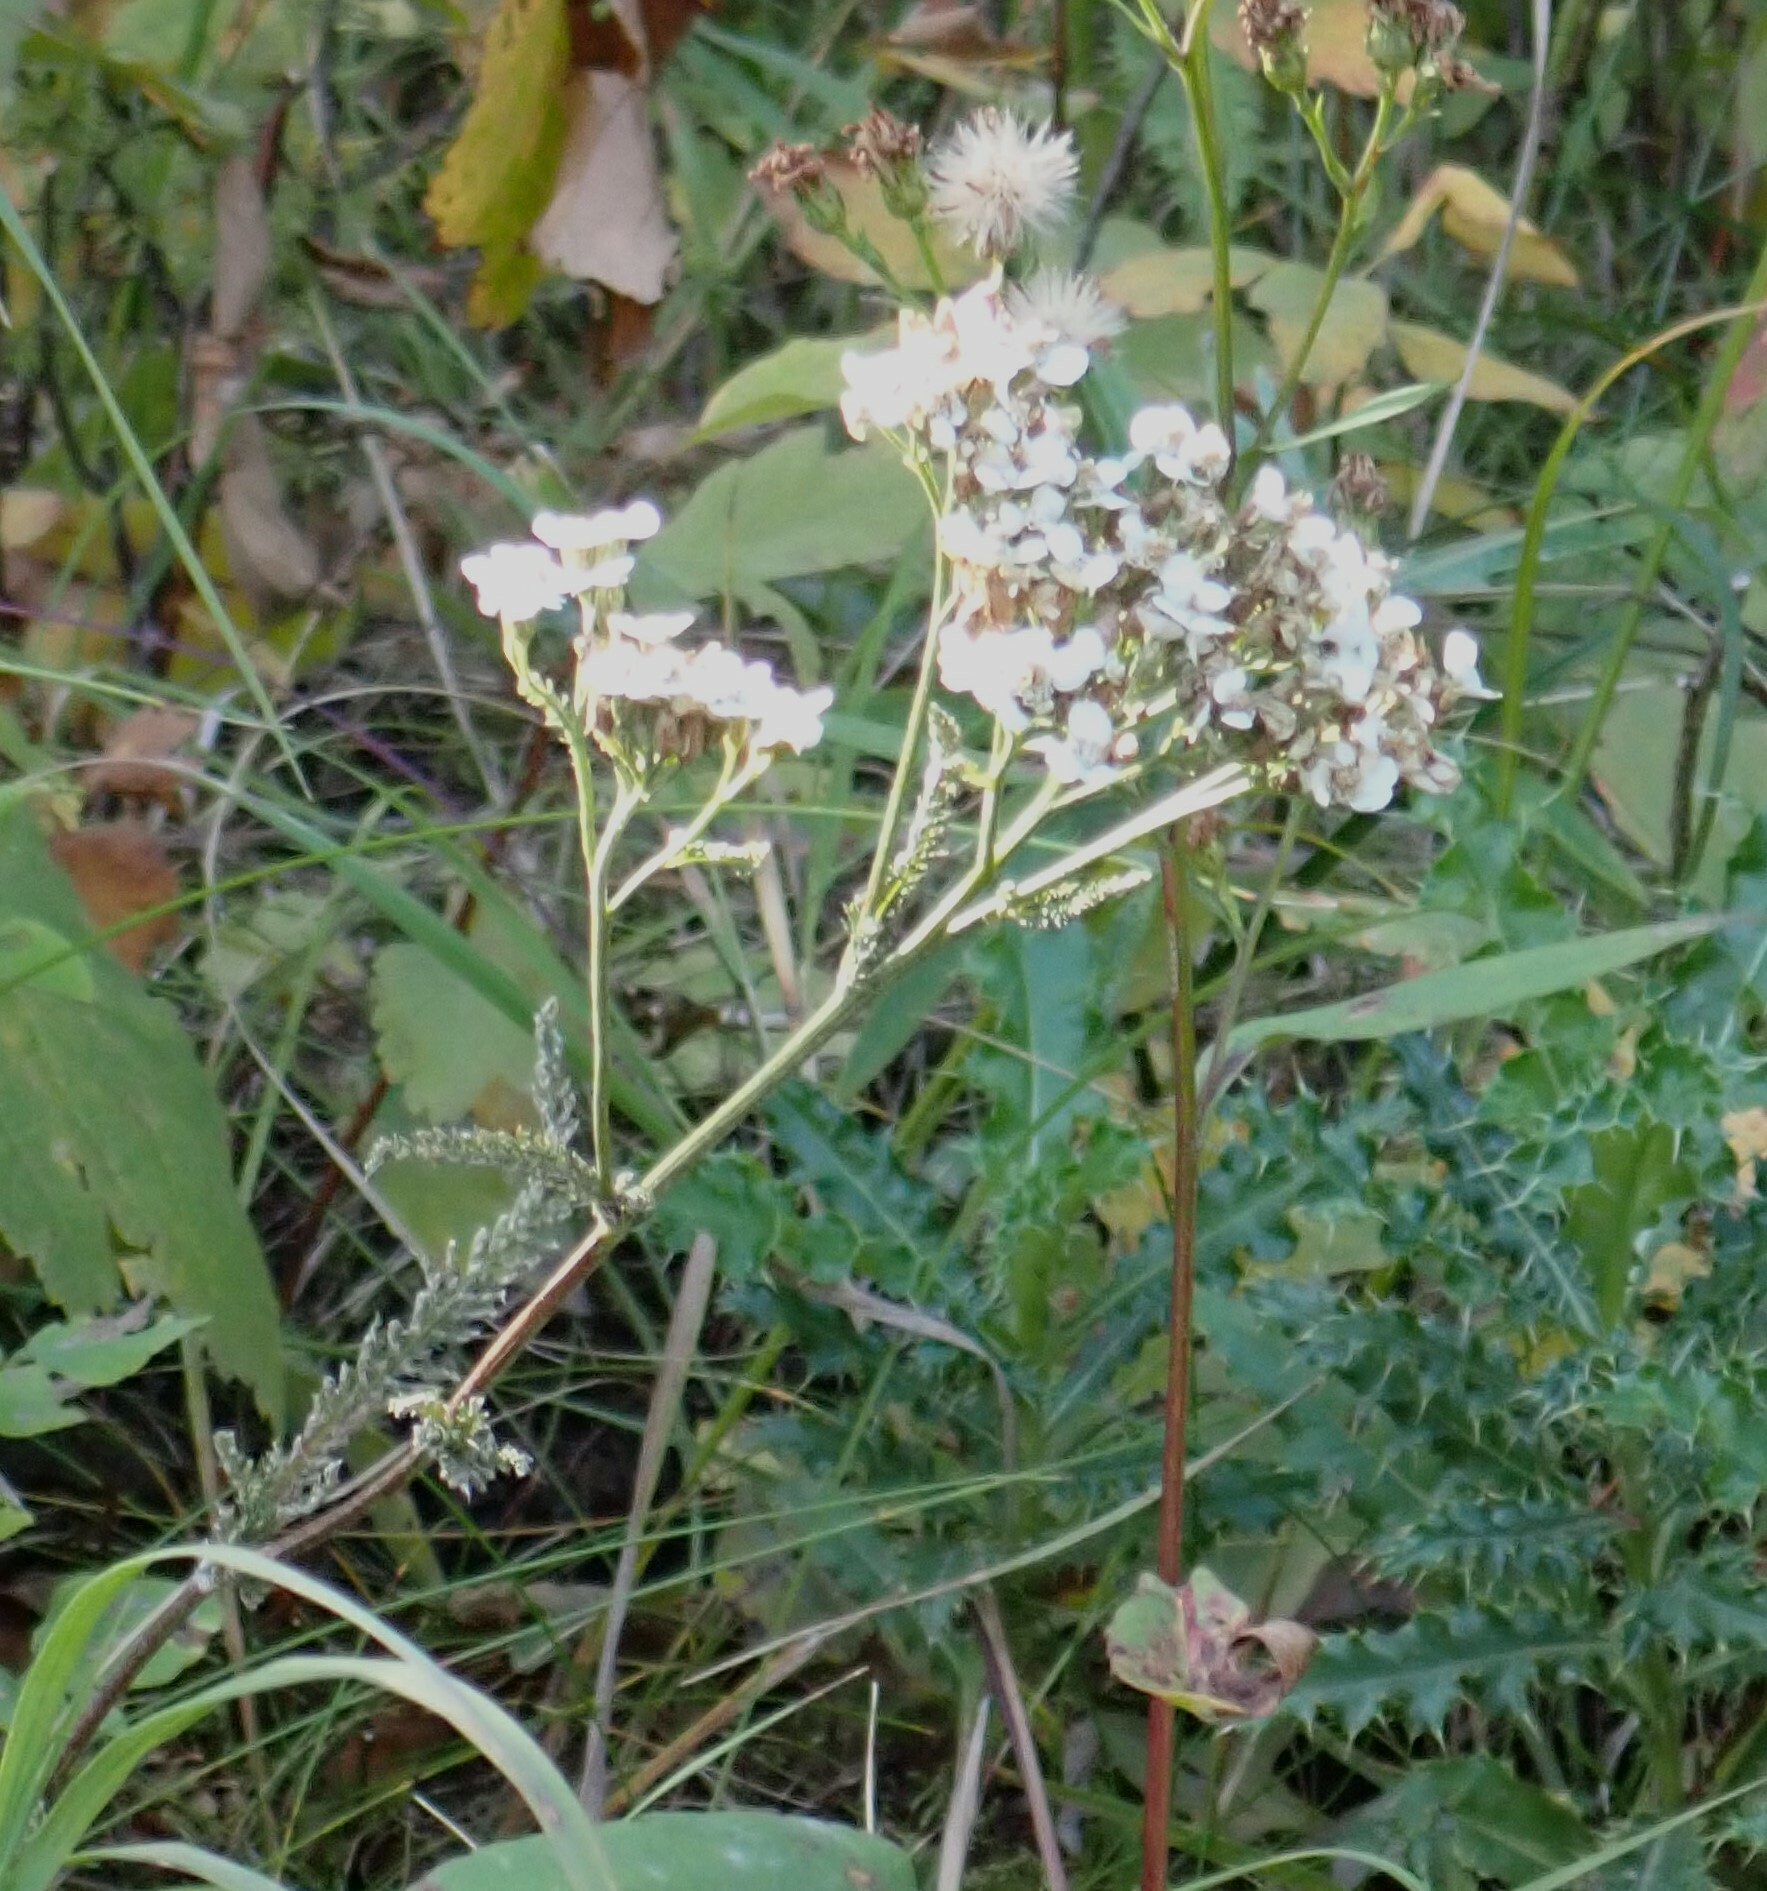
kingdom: Plantae
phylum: Tracheophyta
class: Magnoliopsida
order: Asterales
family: Asteraceae
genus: Achillea
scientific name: Achillea millefolium
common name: Yarrow
